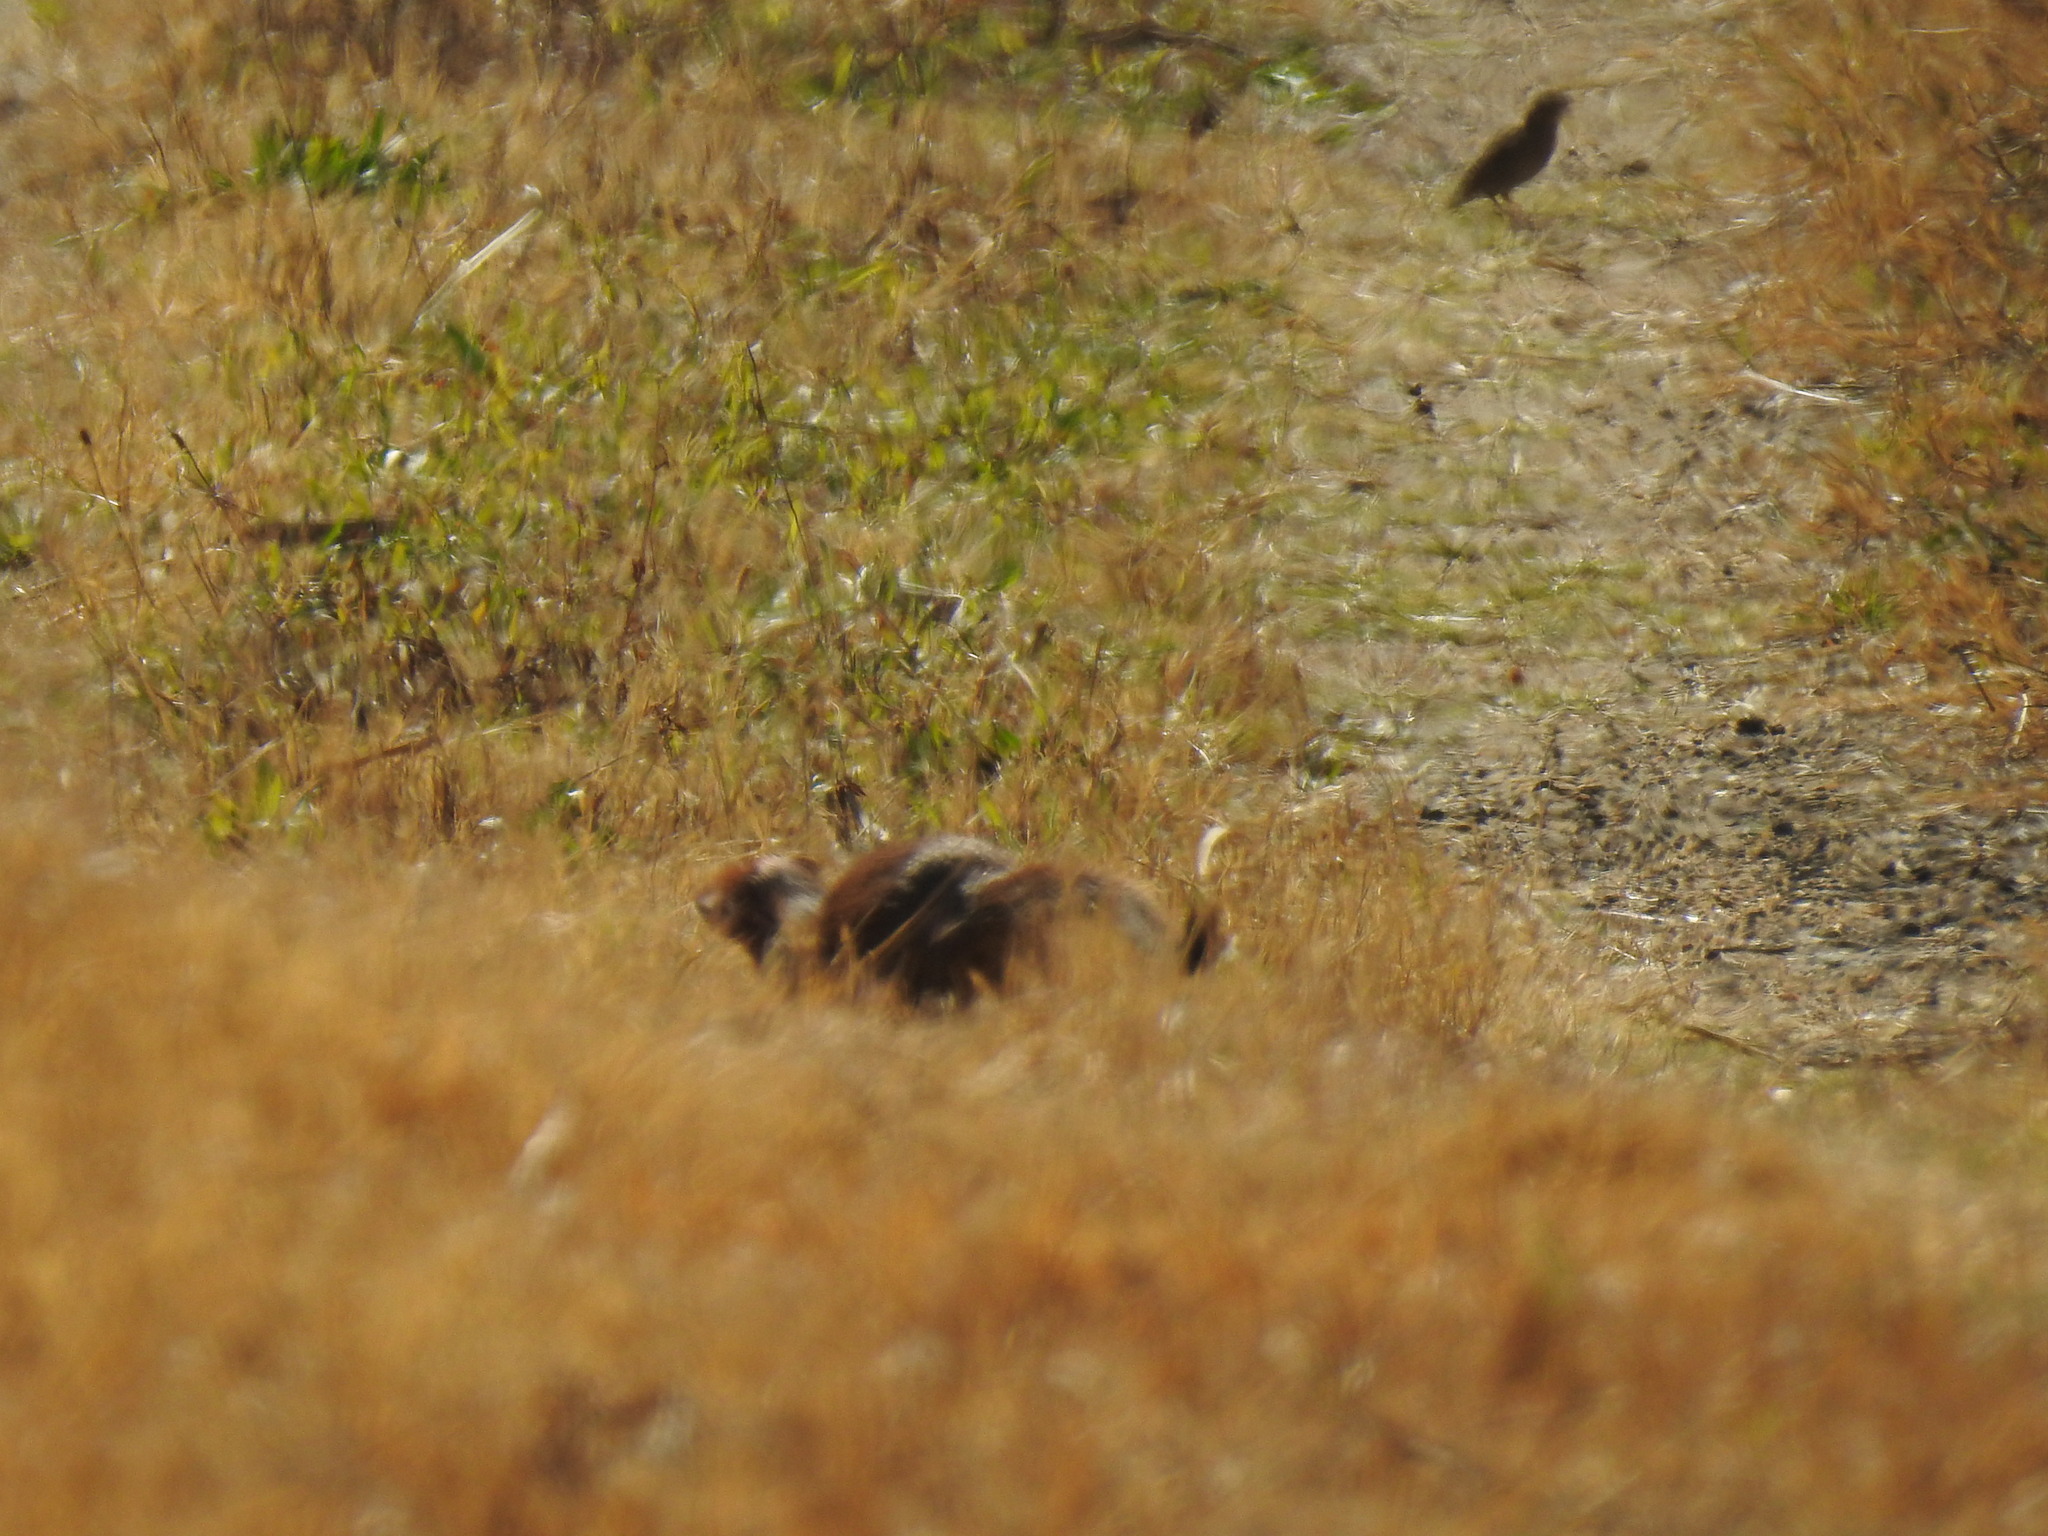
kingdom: Animalia
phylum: Chordata
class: Mammalia
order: Carnivora
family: Herpestidae
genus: Galerella
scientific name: Galerella sanguinea
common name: Slender mongoose
